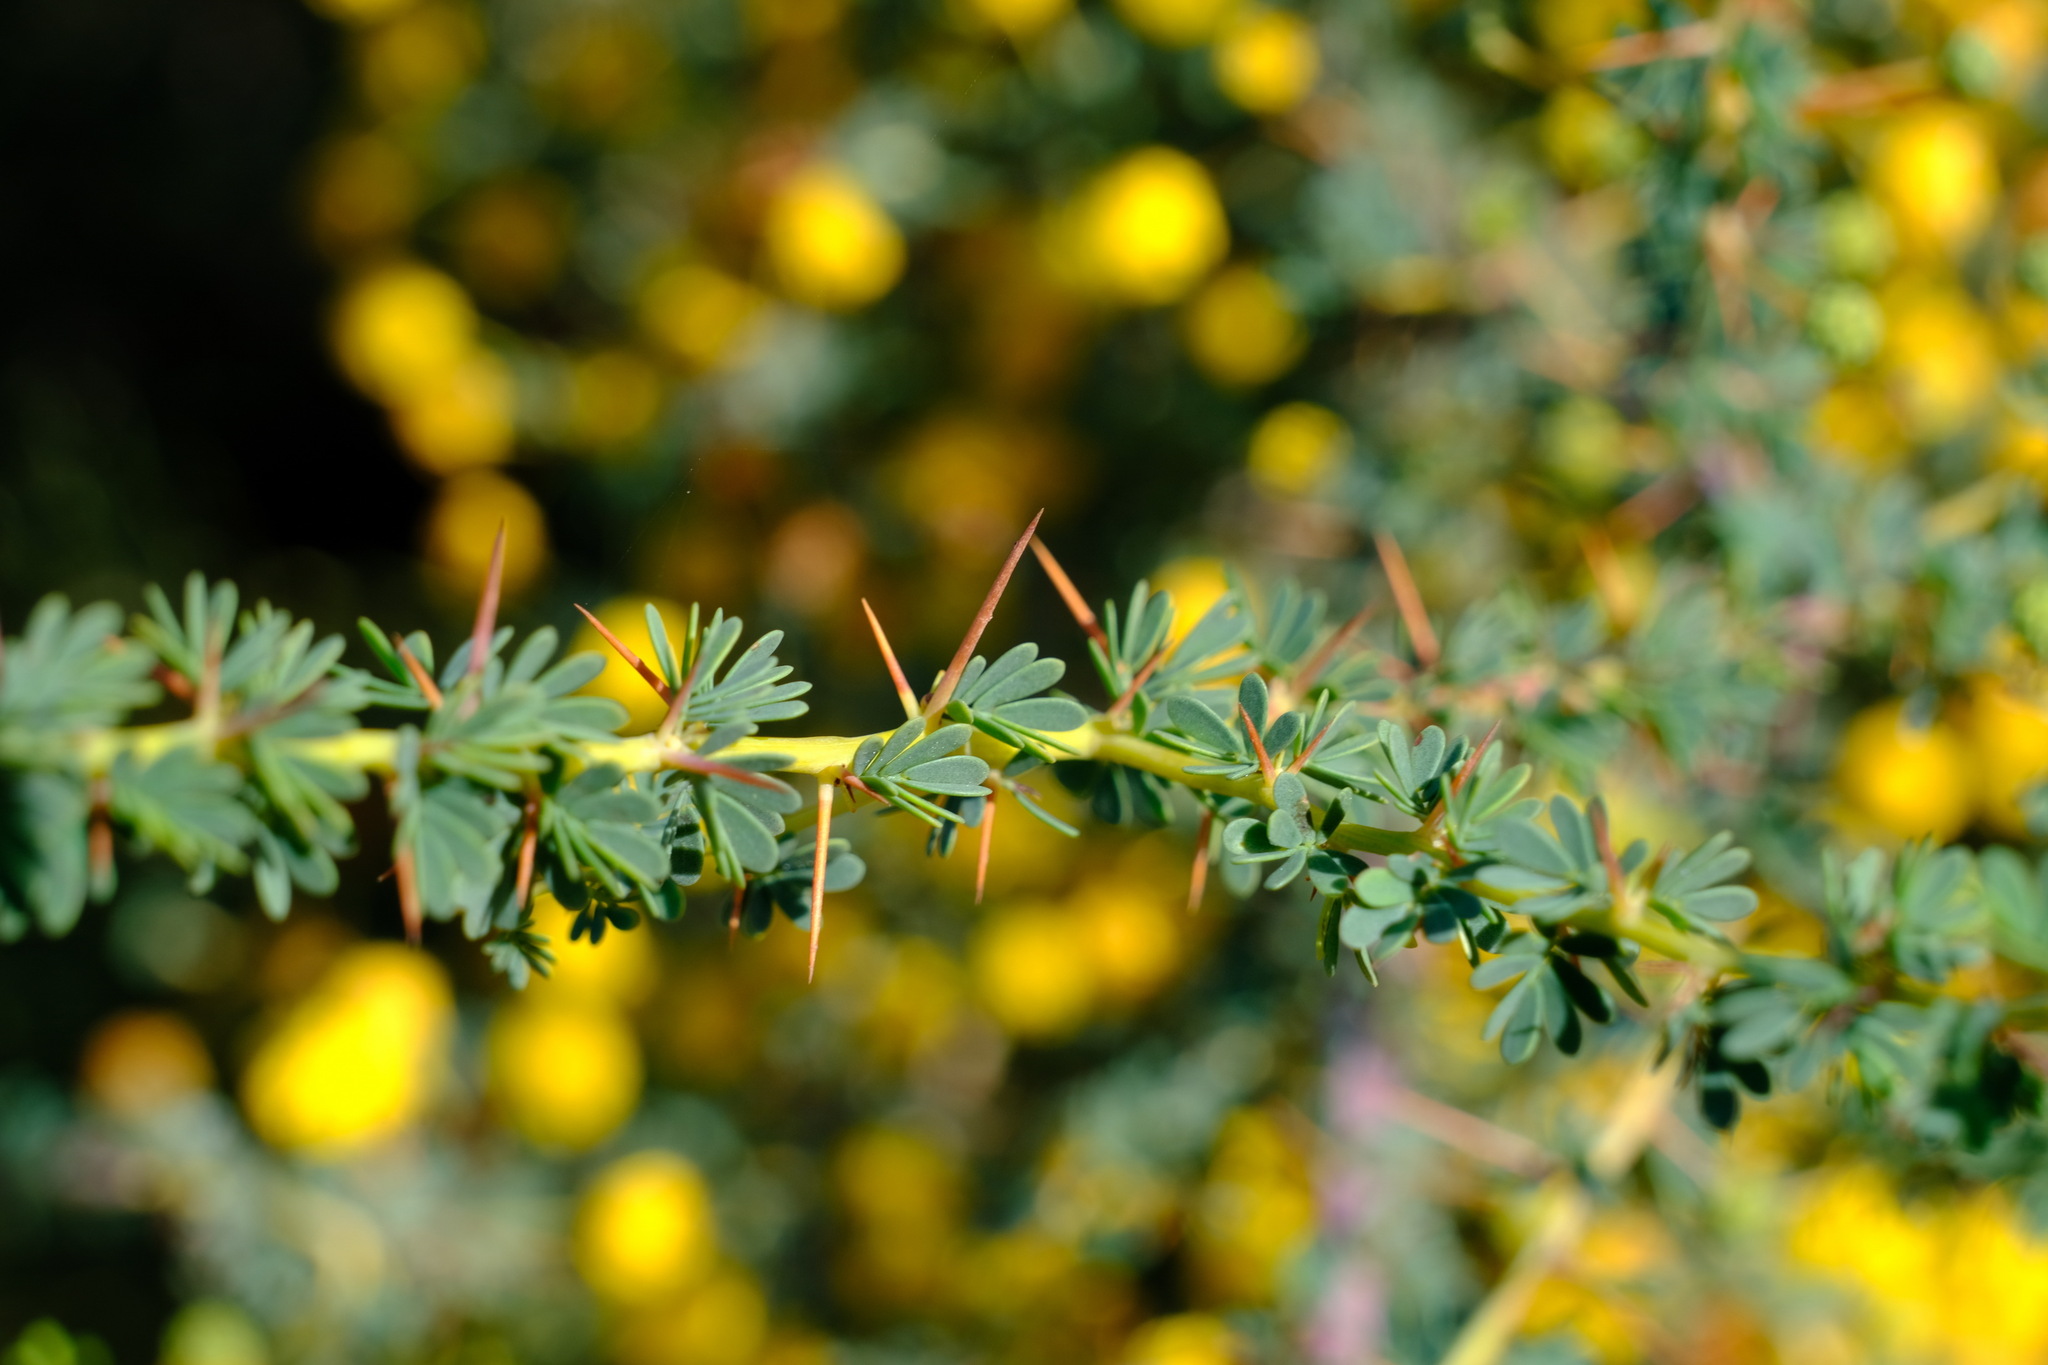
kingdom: Plantae
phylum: Tracheophyta
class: Magnoliopsida
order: Fabales
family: Fabaceae
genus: Acacia
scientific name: Acacia pulchella
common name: Prickly moses
